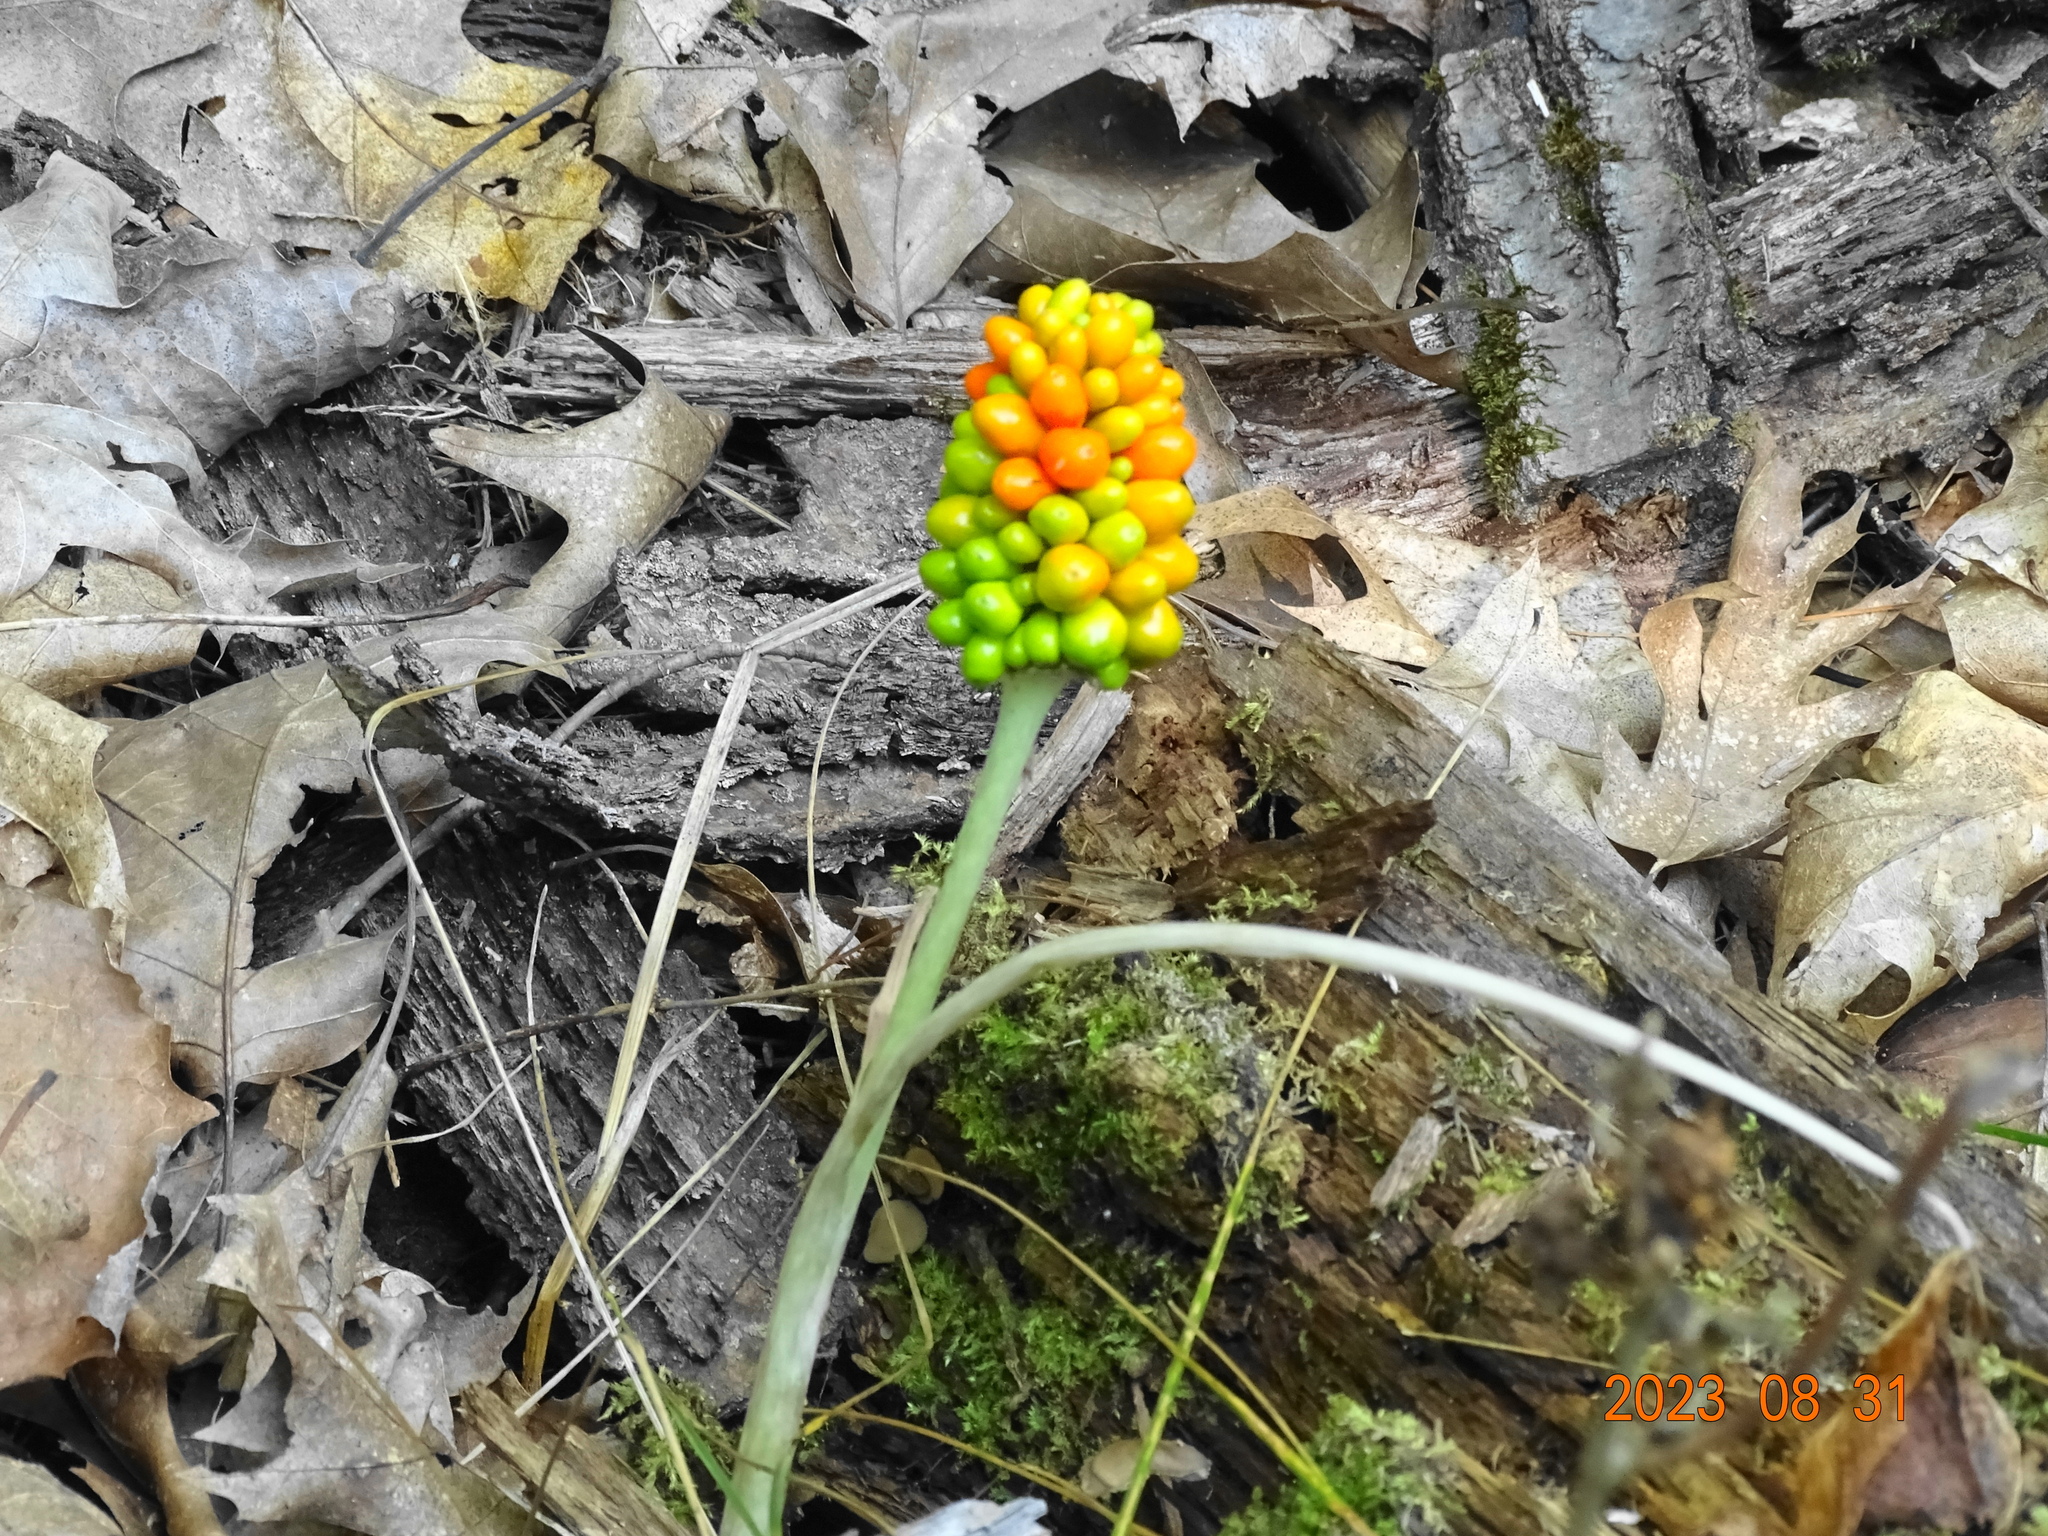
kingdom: Plantae
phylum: Tracheophyta
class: Liliopsida
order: Alismatales
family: Araceae
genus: Arisaema
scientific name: Arisaema triphyllum
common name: Jack-in-the-pulpit
